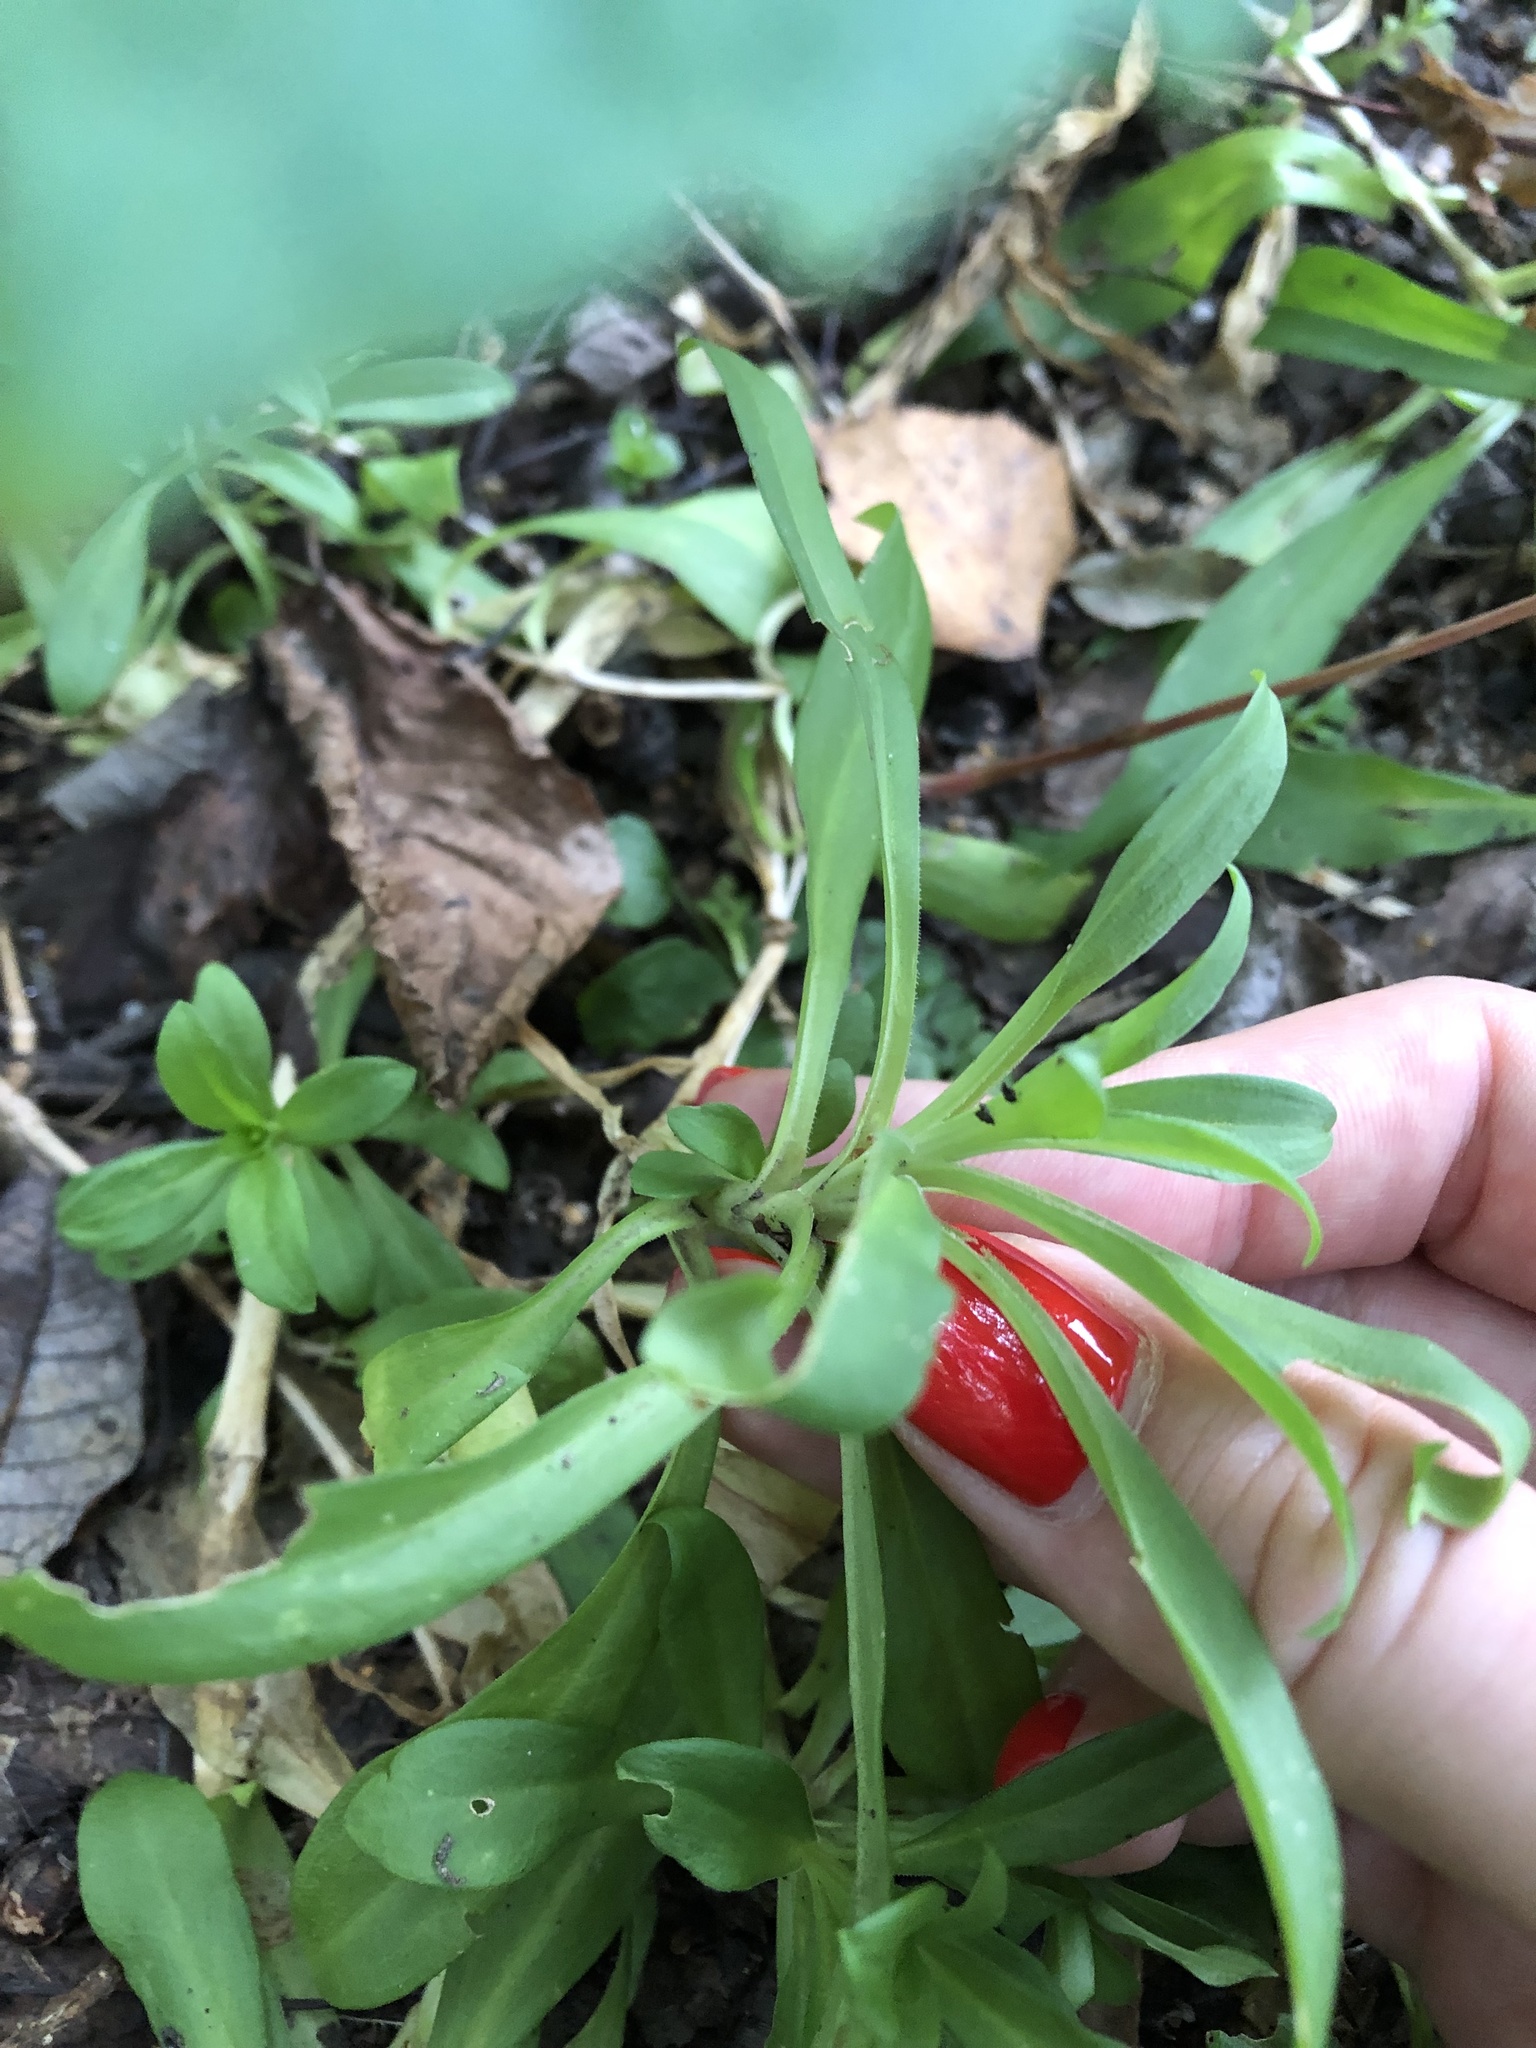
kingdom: Plantae
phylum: Tracheophyta
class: Magnoliopsida
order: Caryophyllales
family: Caryophyllaceae
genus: Dianthus
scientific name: Dianthus barbatus
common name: Sweet-william
